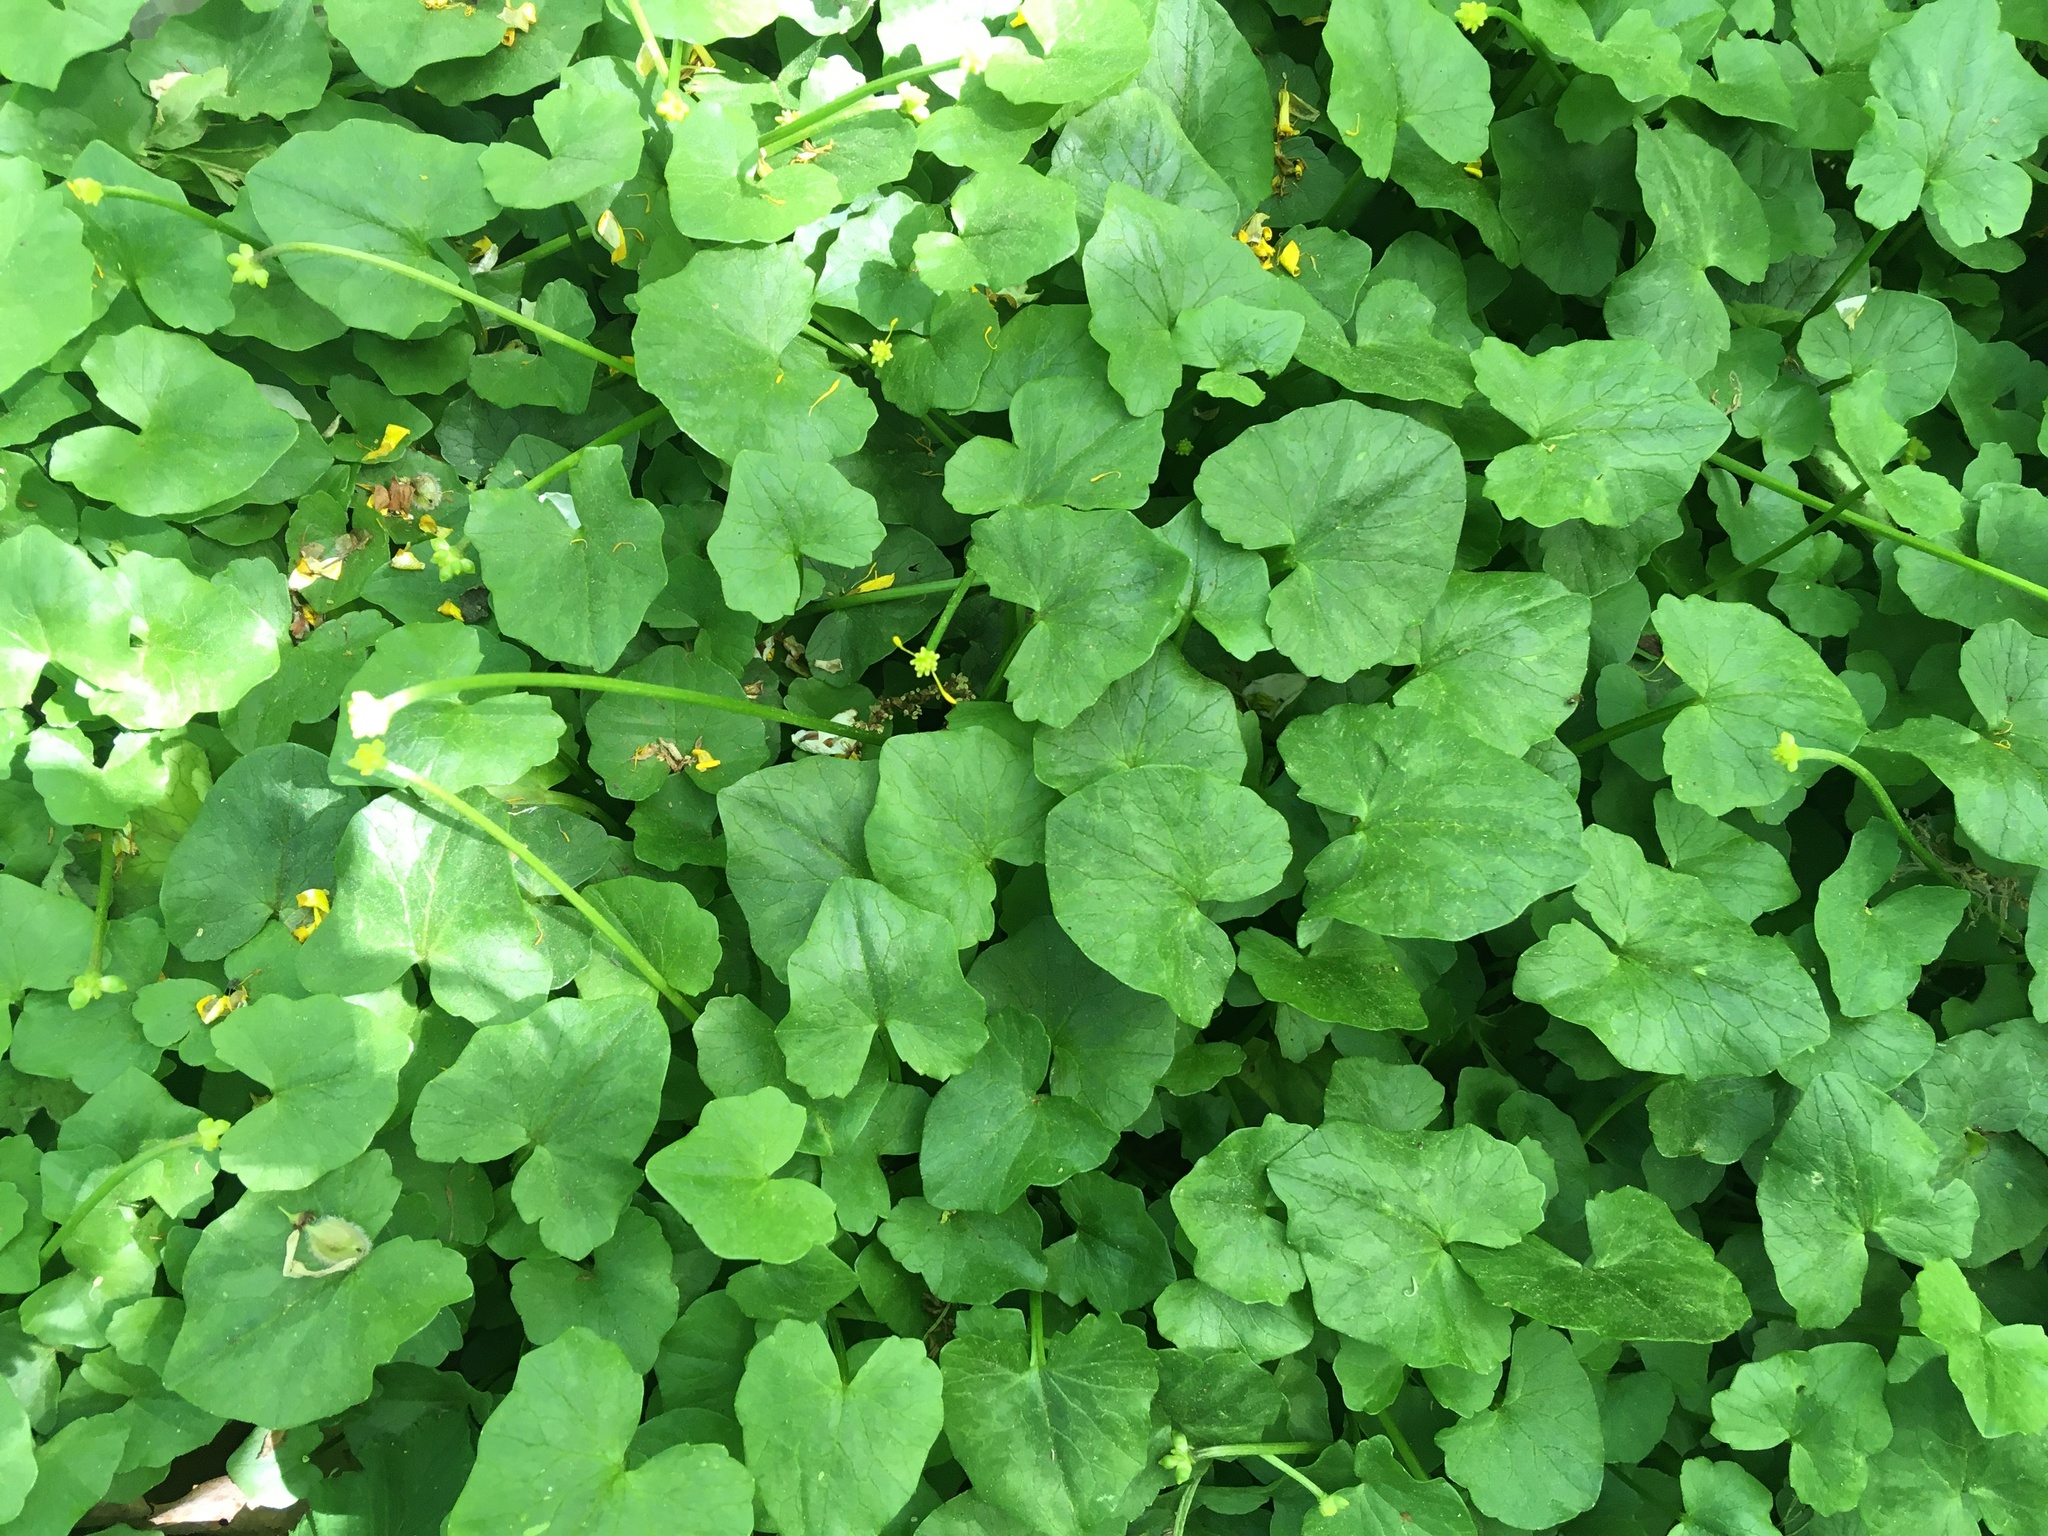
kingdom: Plantae
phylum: Tracheophyta
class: Magnoliopsida
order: Ranunculales
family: Ranunculaceae
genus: Ficaria
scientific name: Ficaria verna
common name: Lesser celandine
